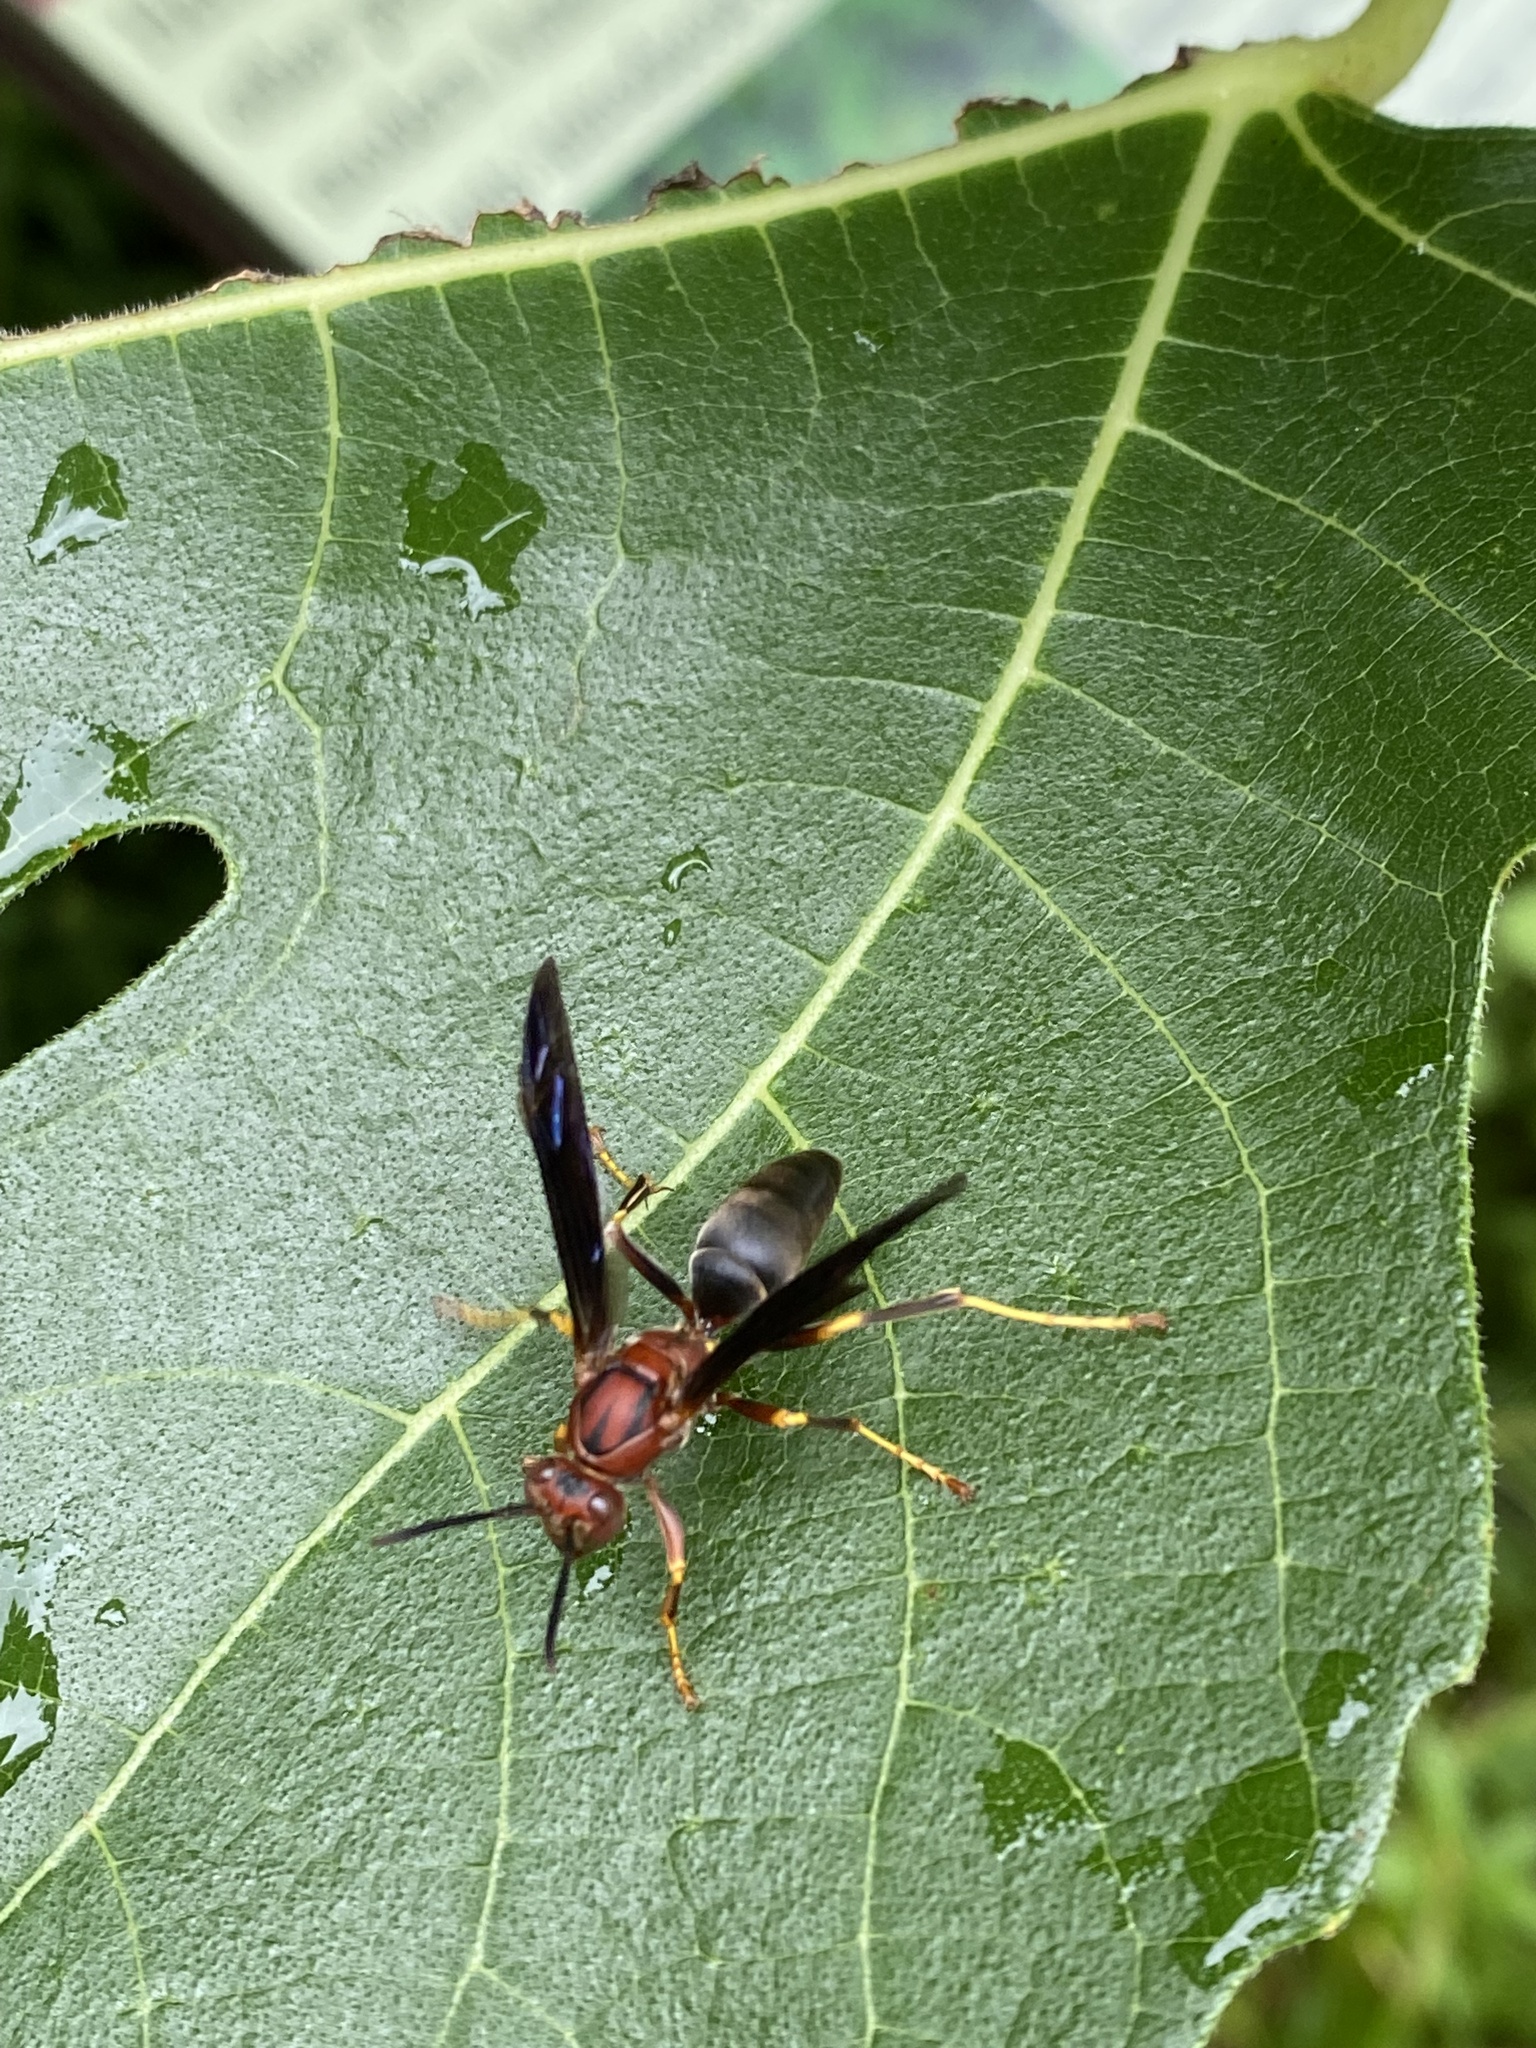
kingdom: Animalia
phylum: Arthropoda
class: Insecta
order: Hymenoptera
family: Eumenidae
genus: Polistes
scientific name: Polistes metricus
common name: Metric paper wasp
